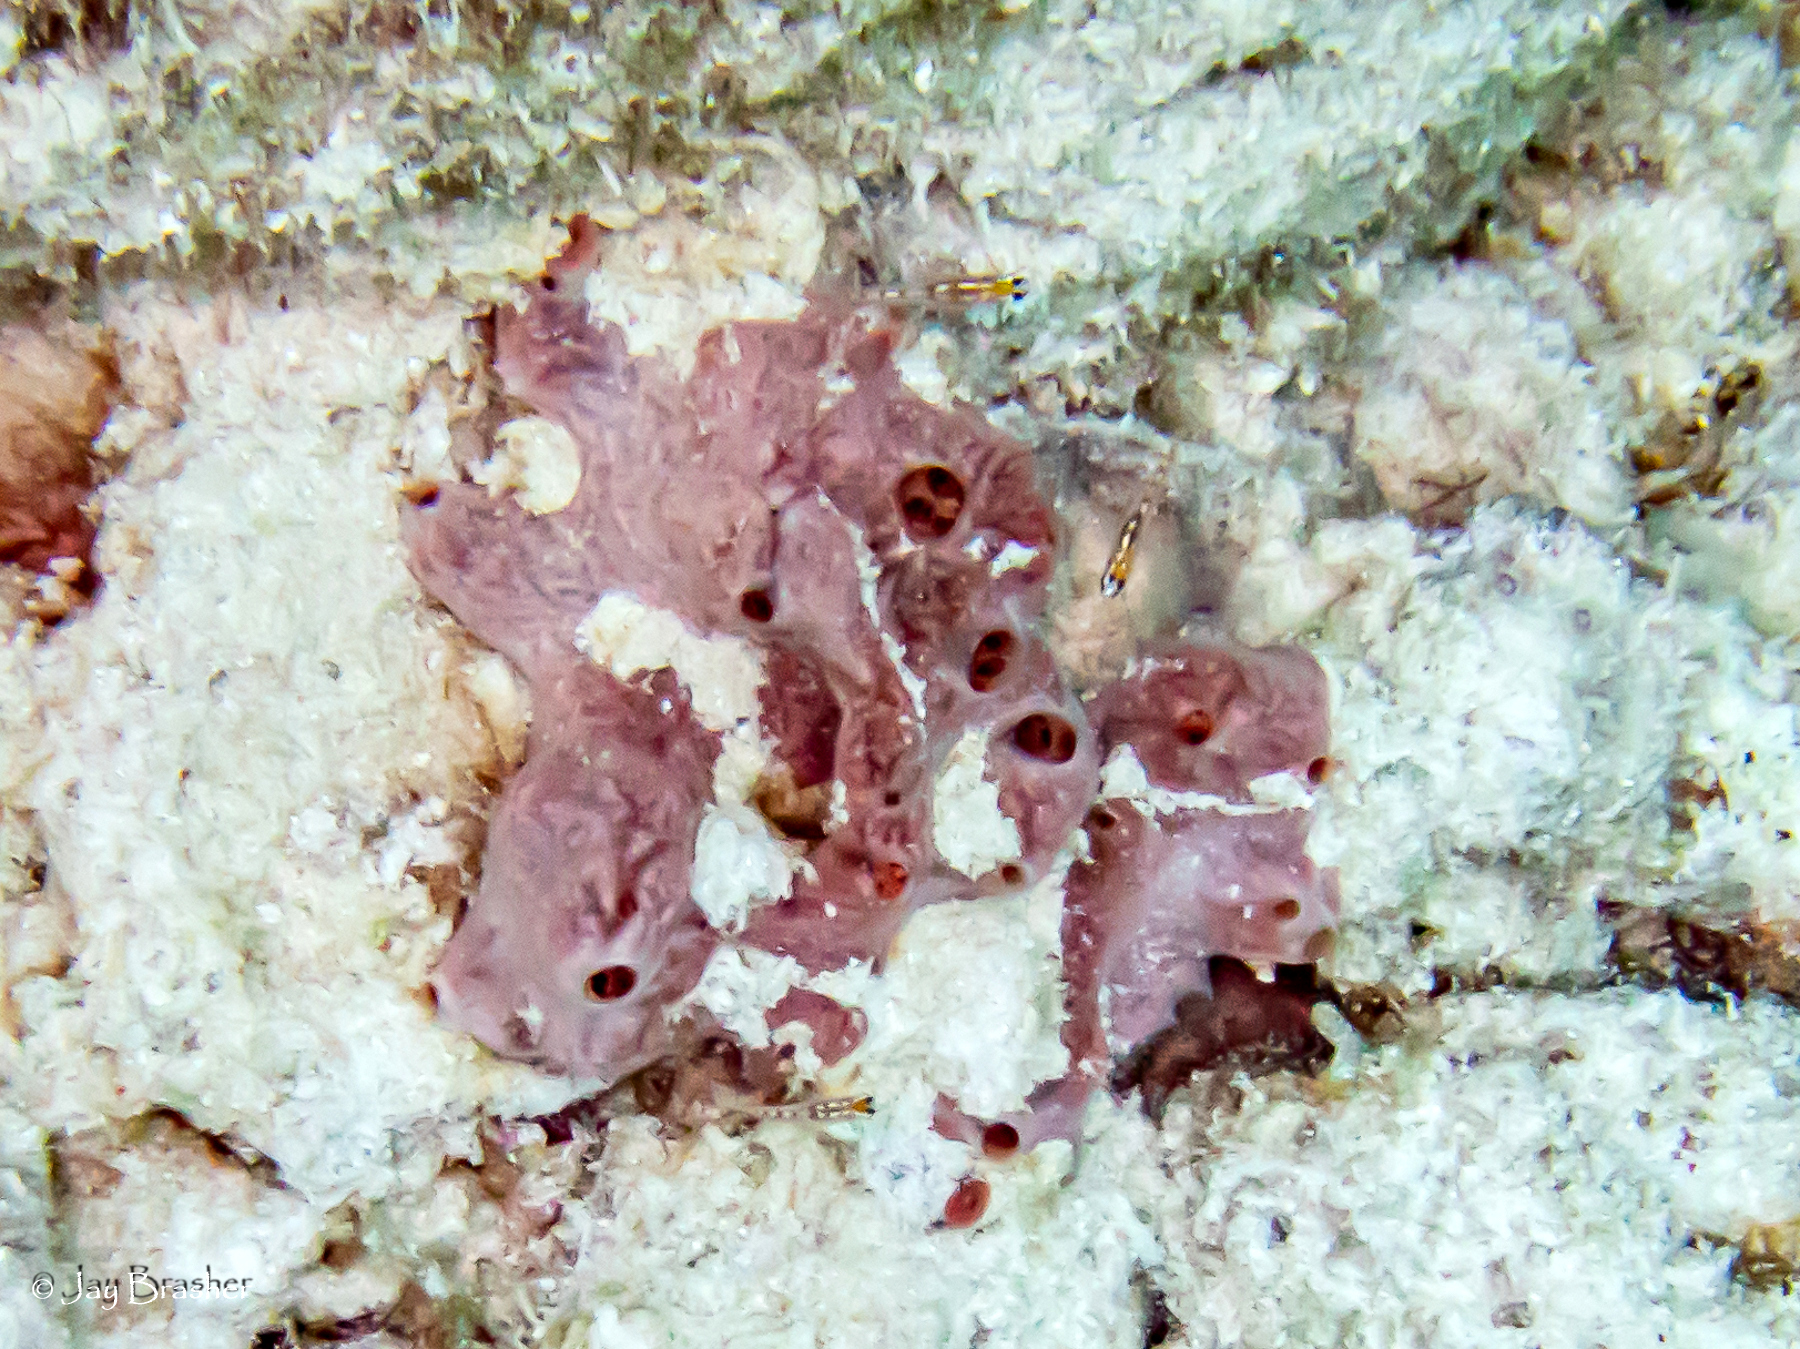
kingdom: Animalia
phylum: Porifera
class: Demospongiae
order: Poecilosclerida
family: Desmacididae
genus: Desmapsamma
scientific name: Desmapsamma anchorata
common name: Lumpy overgrowing sponge
